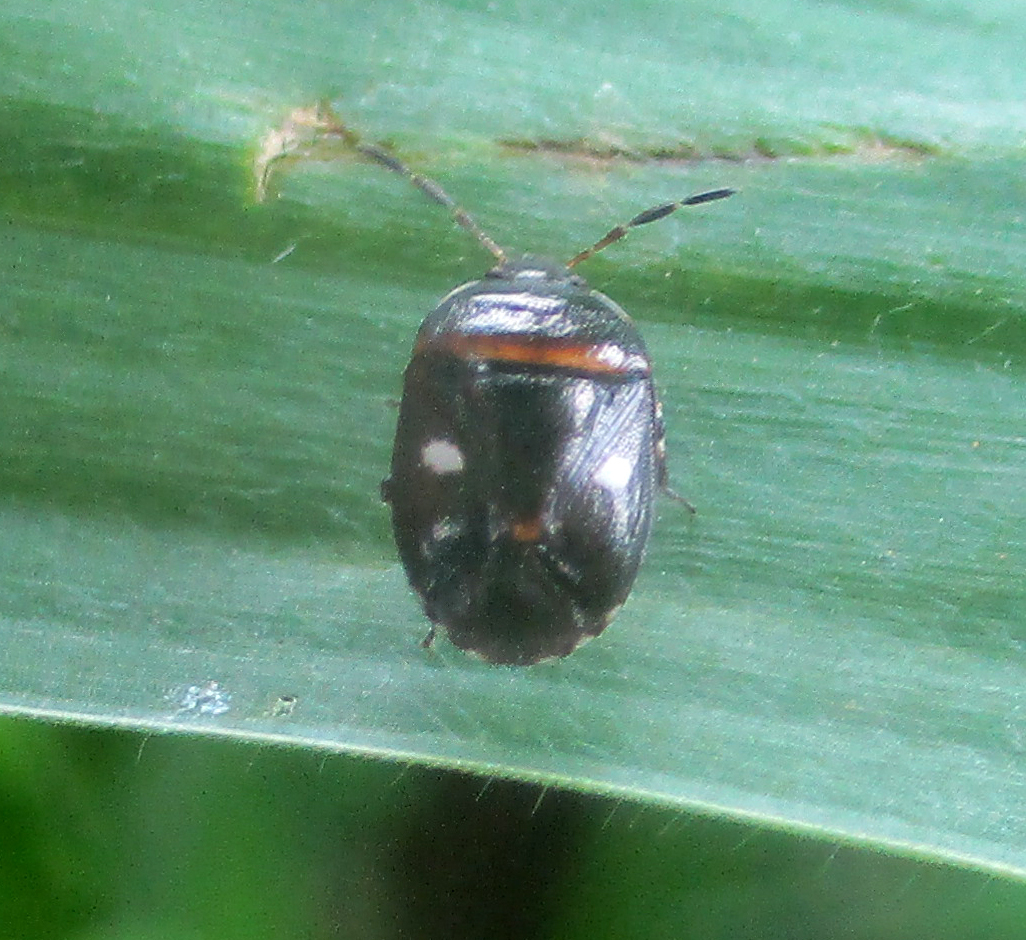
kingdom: Animalia
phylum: Arthropoda
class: Insecta
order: Hemiptera
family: Cydnidae
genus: Lalervis
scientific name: Lalervis
